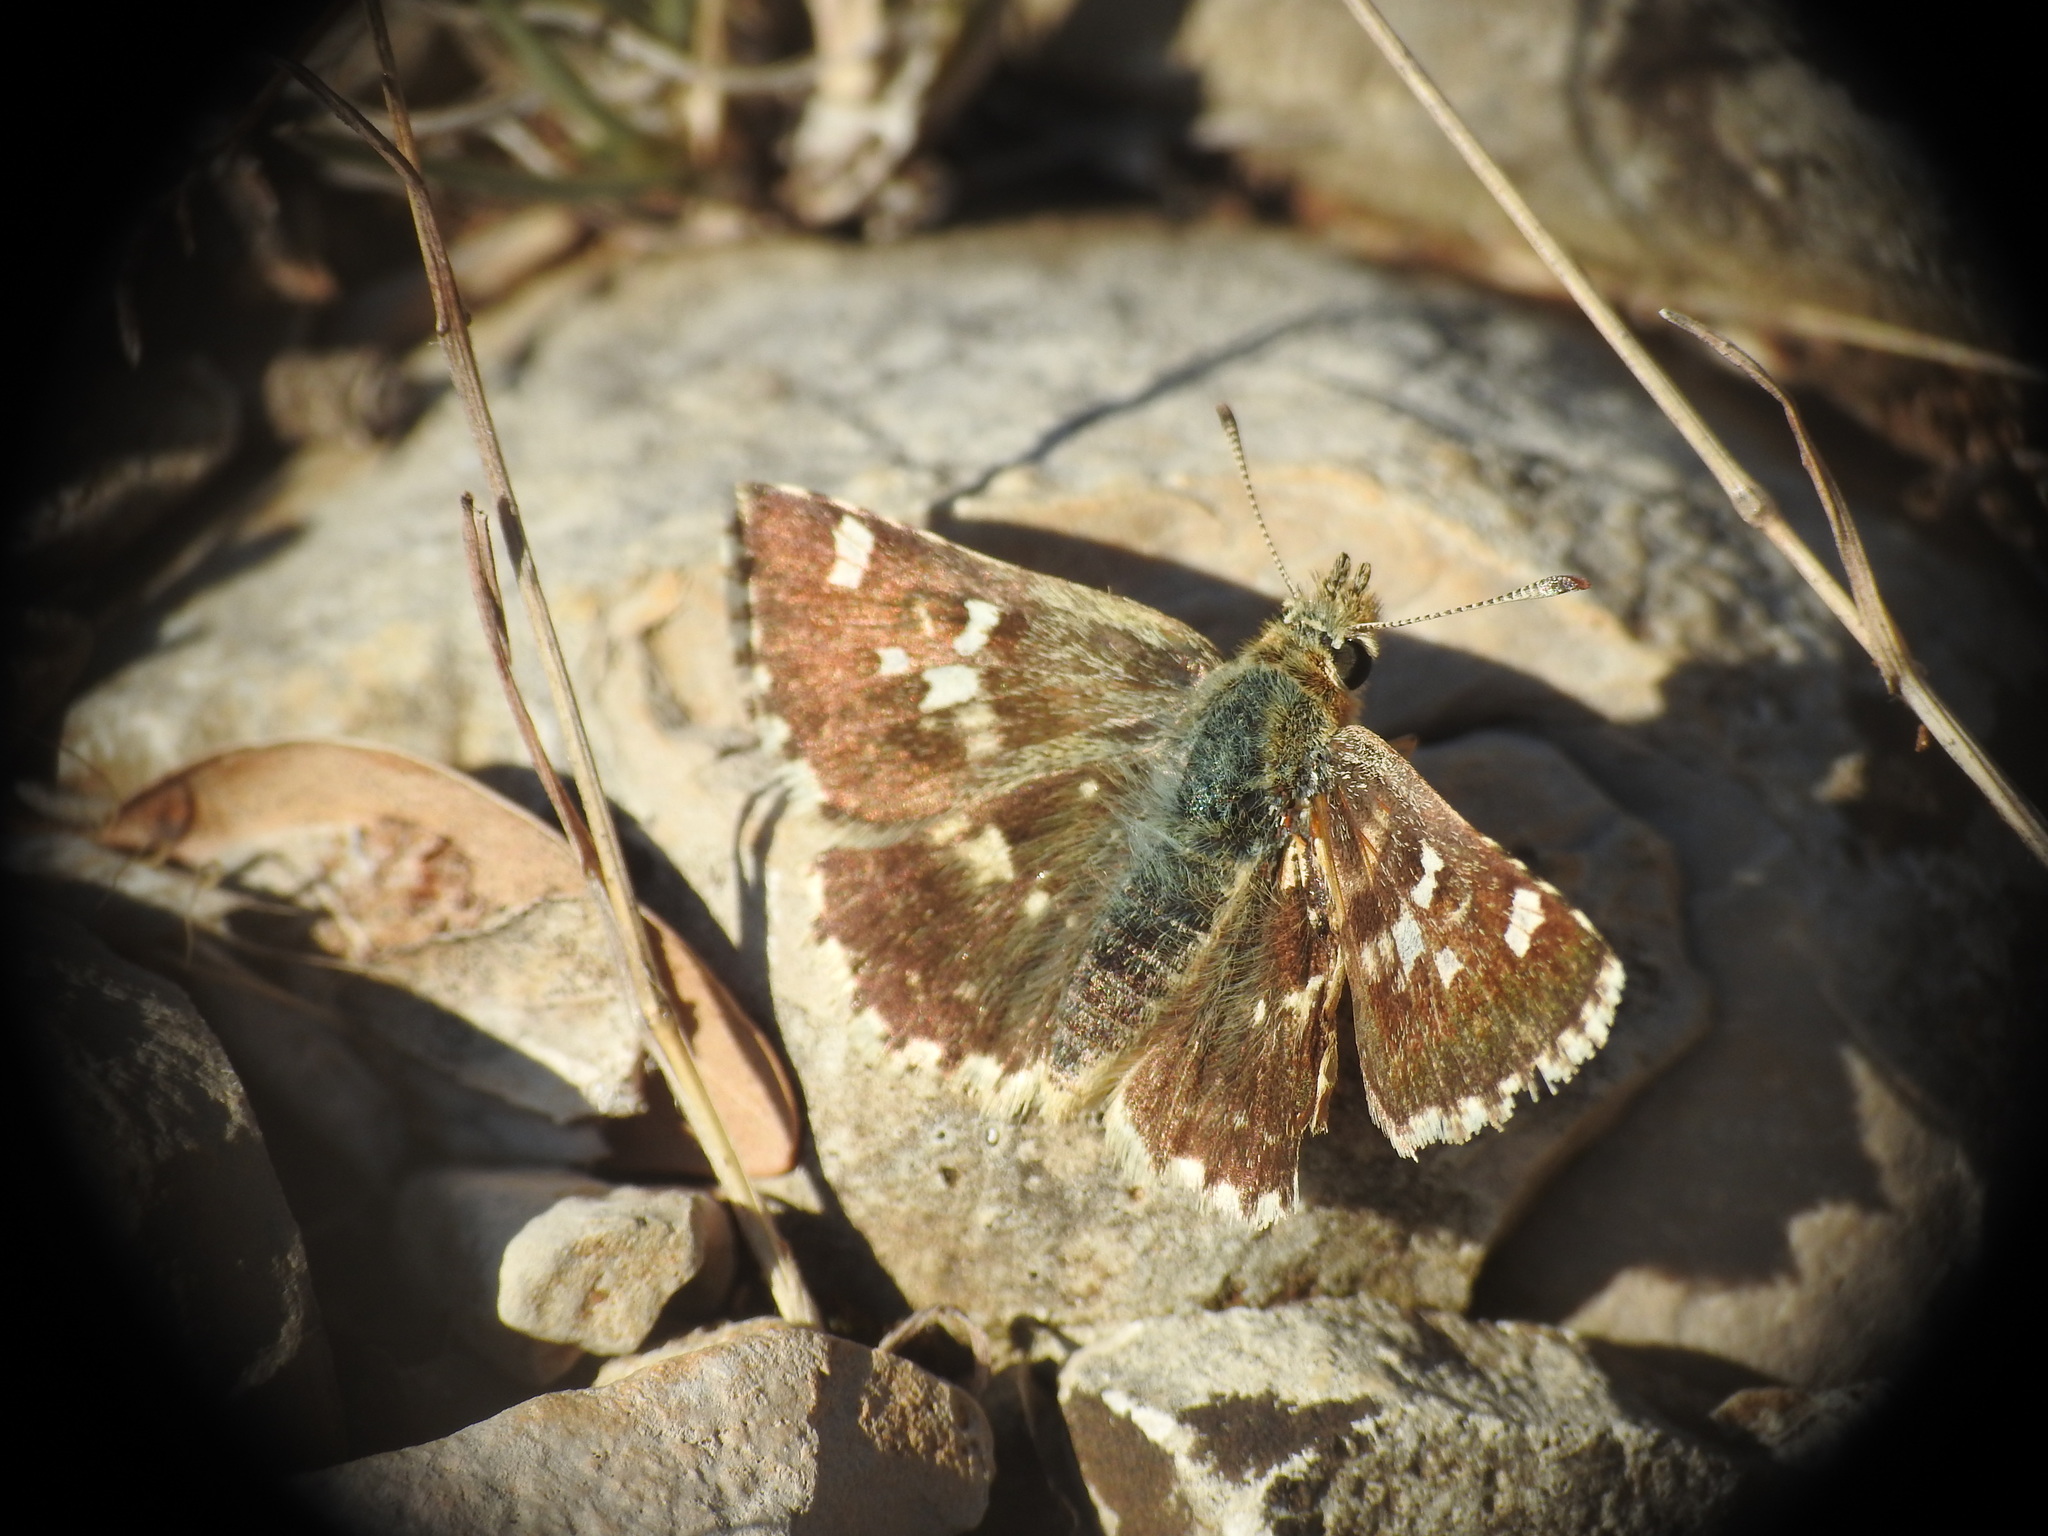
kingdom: Animalia
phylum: Arthropoda
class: Insecta
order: Lepidoptera
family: Hesperiidae
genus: Syrichtus
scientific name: Syrichtus Muschampia proto
